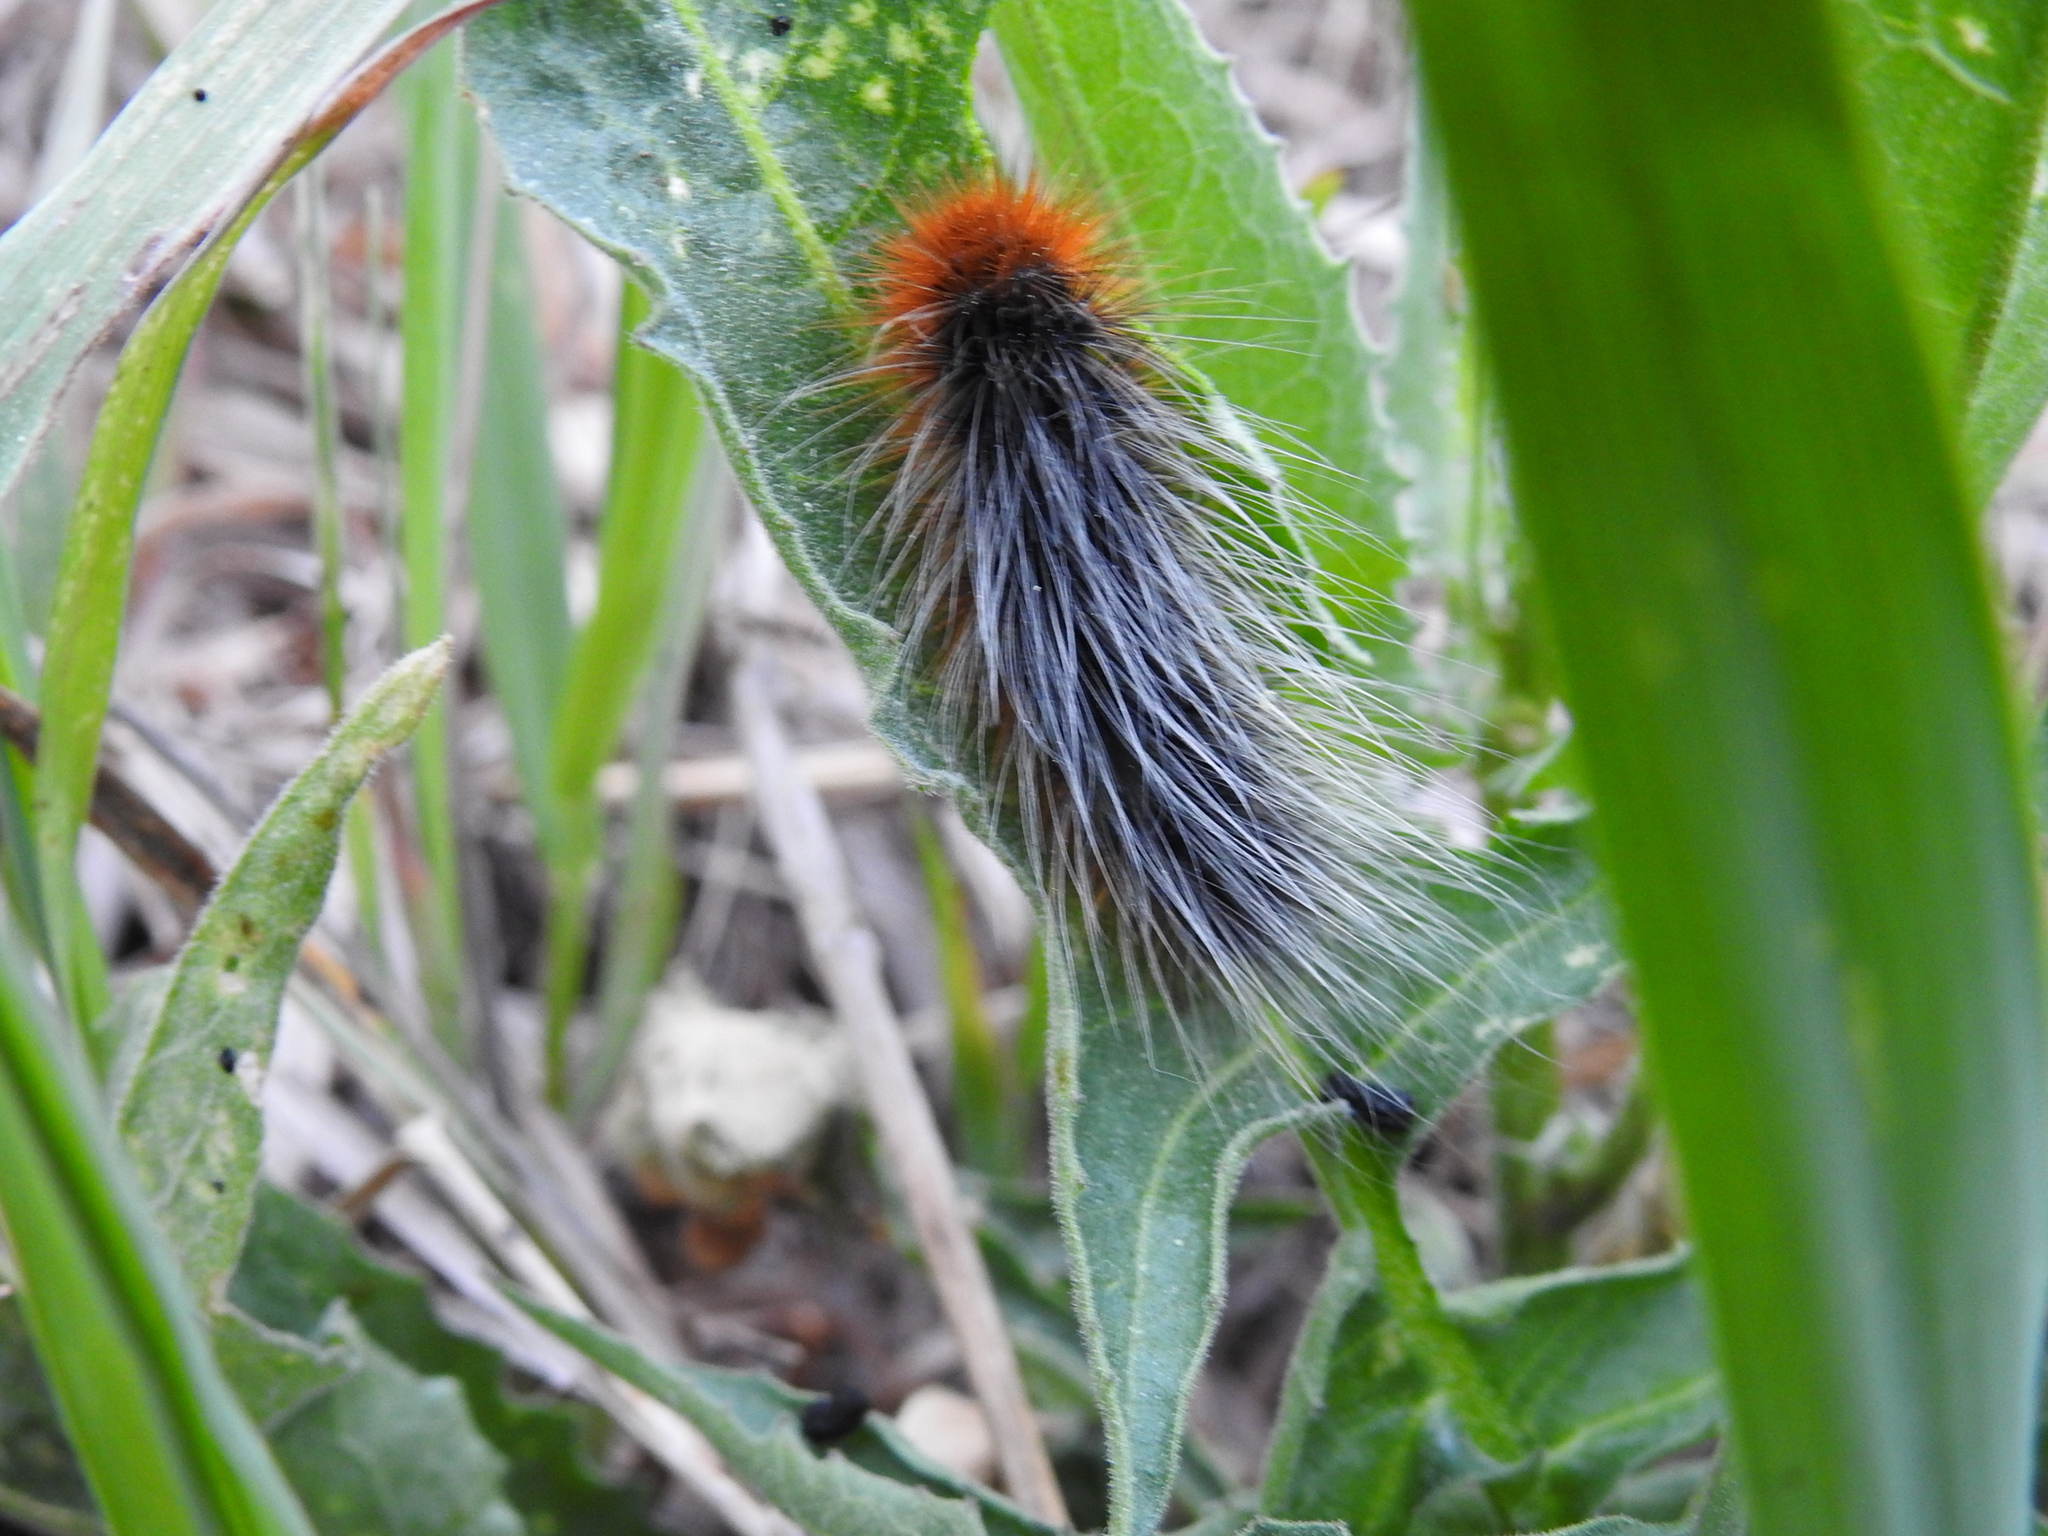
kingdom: Animalia
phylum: Arthropoda
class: Insecta
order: Lepidoptera
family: Erebidae
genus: Arctia
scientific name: Arctia caja
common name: Garden tiger
